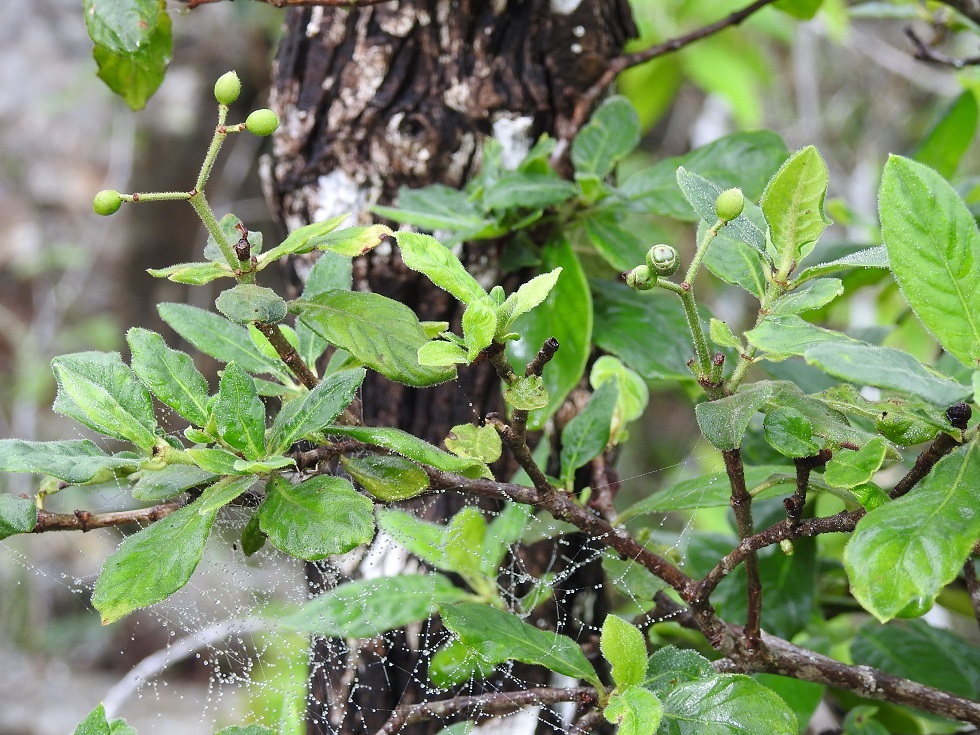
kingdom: Plantae
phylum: Tracheophyta
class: Magnoliopsida
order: Gentianales
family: Rubiaceae
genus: Psychotria
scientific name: Psychotria erythrocarpa
